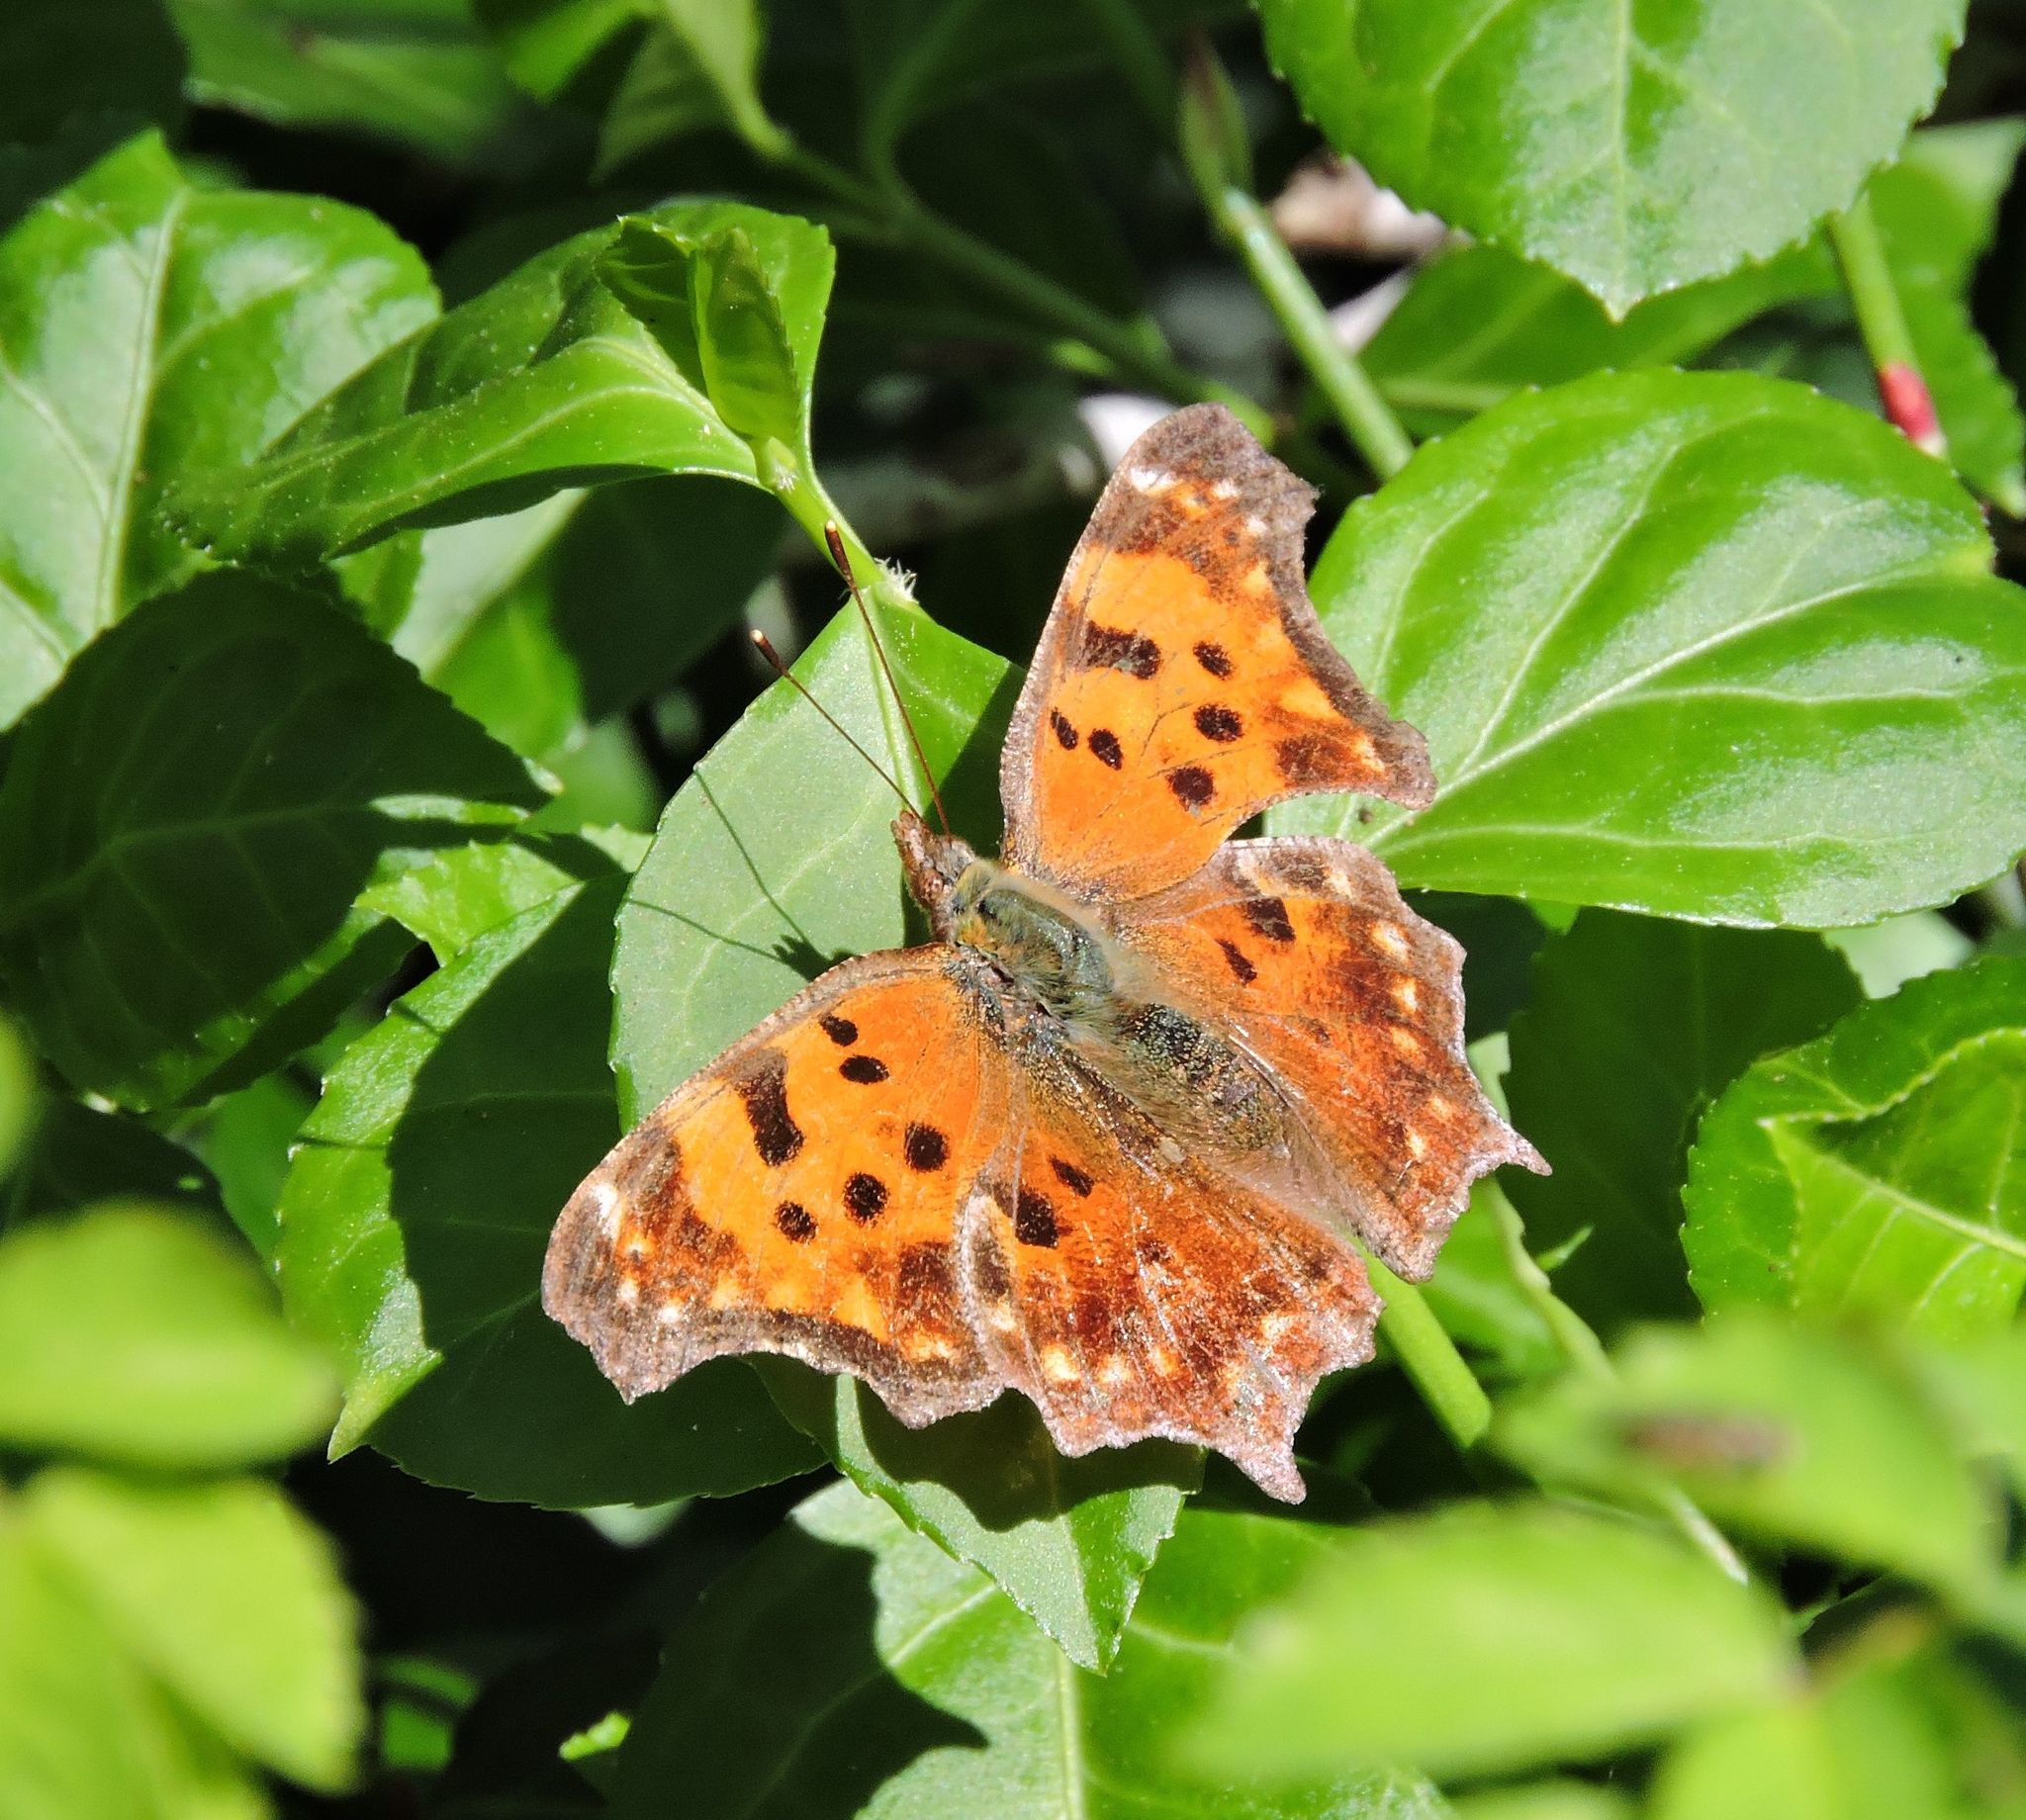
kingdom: Animalia
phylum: Arthropoda
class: Insecta
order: Lepidoptera
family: Nymphalidae
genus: Polygonia
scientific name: Polygonia comma
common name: Eastern comma
